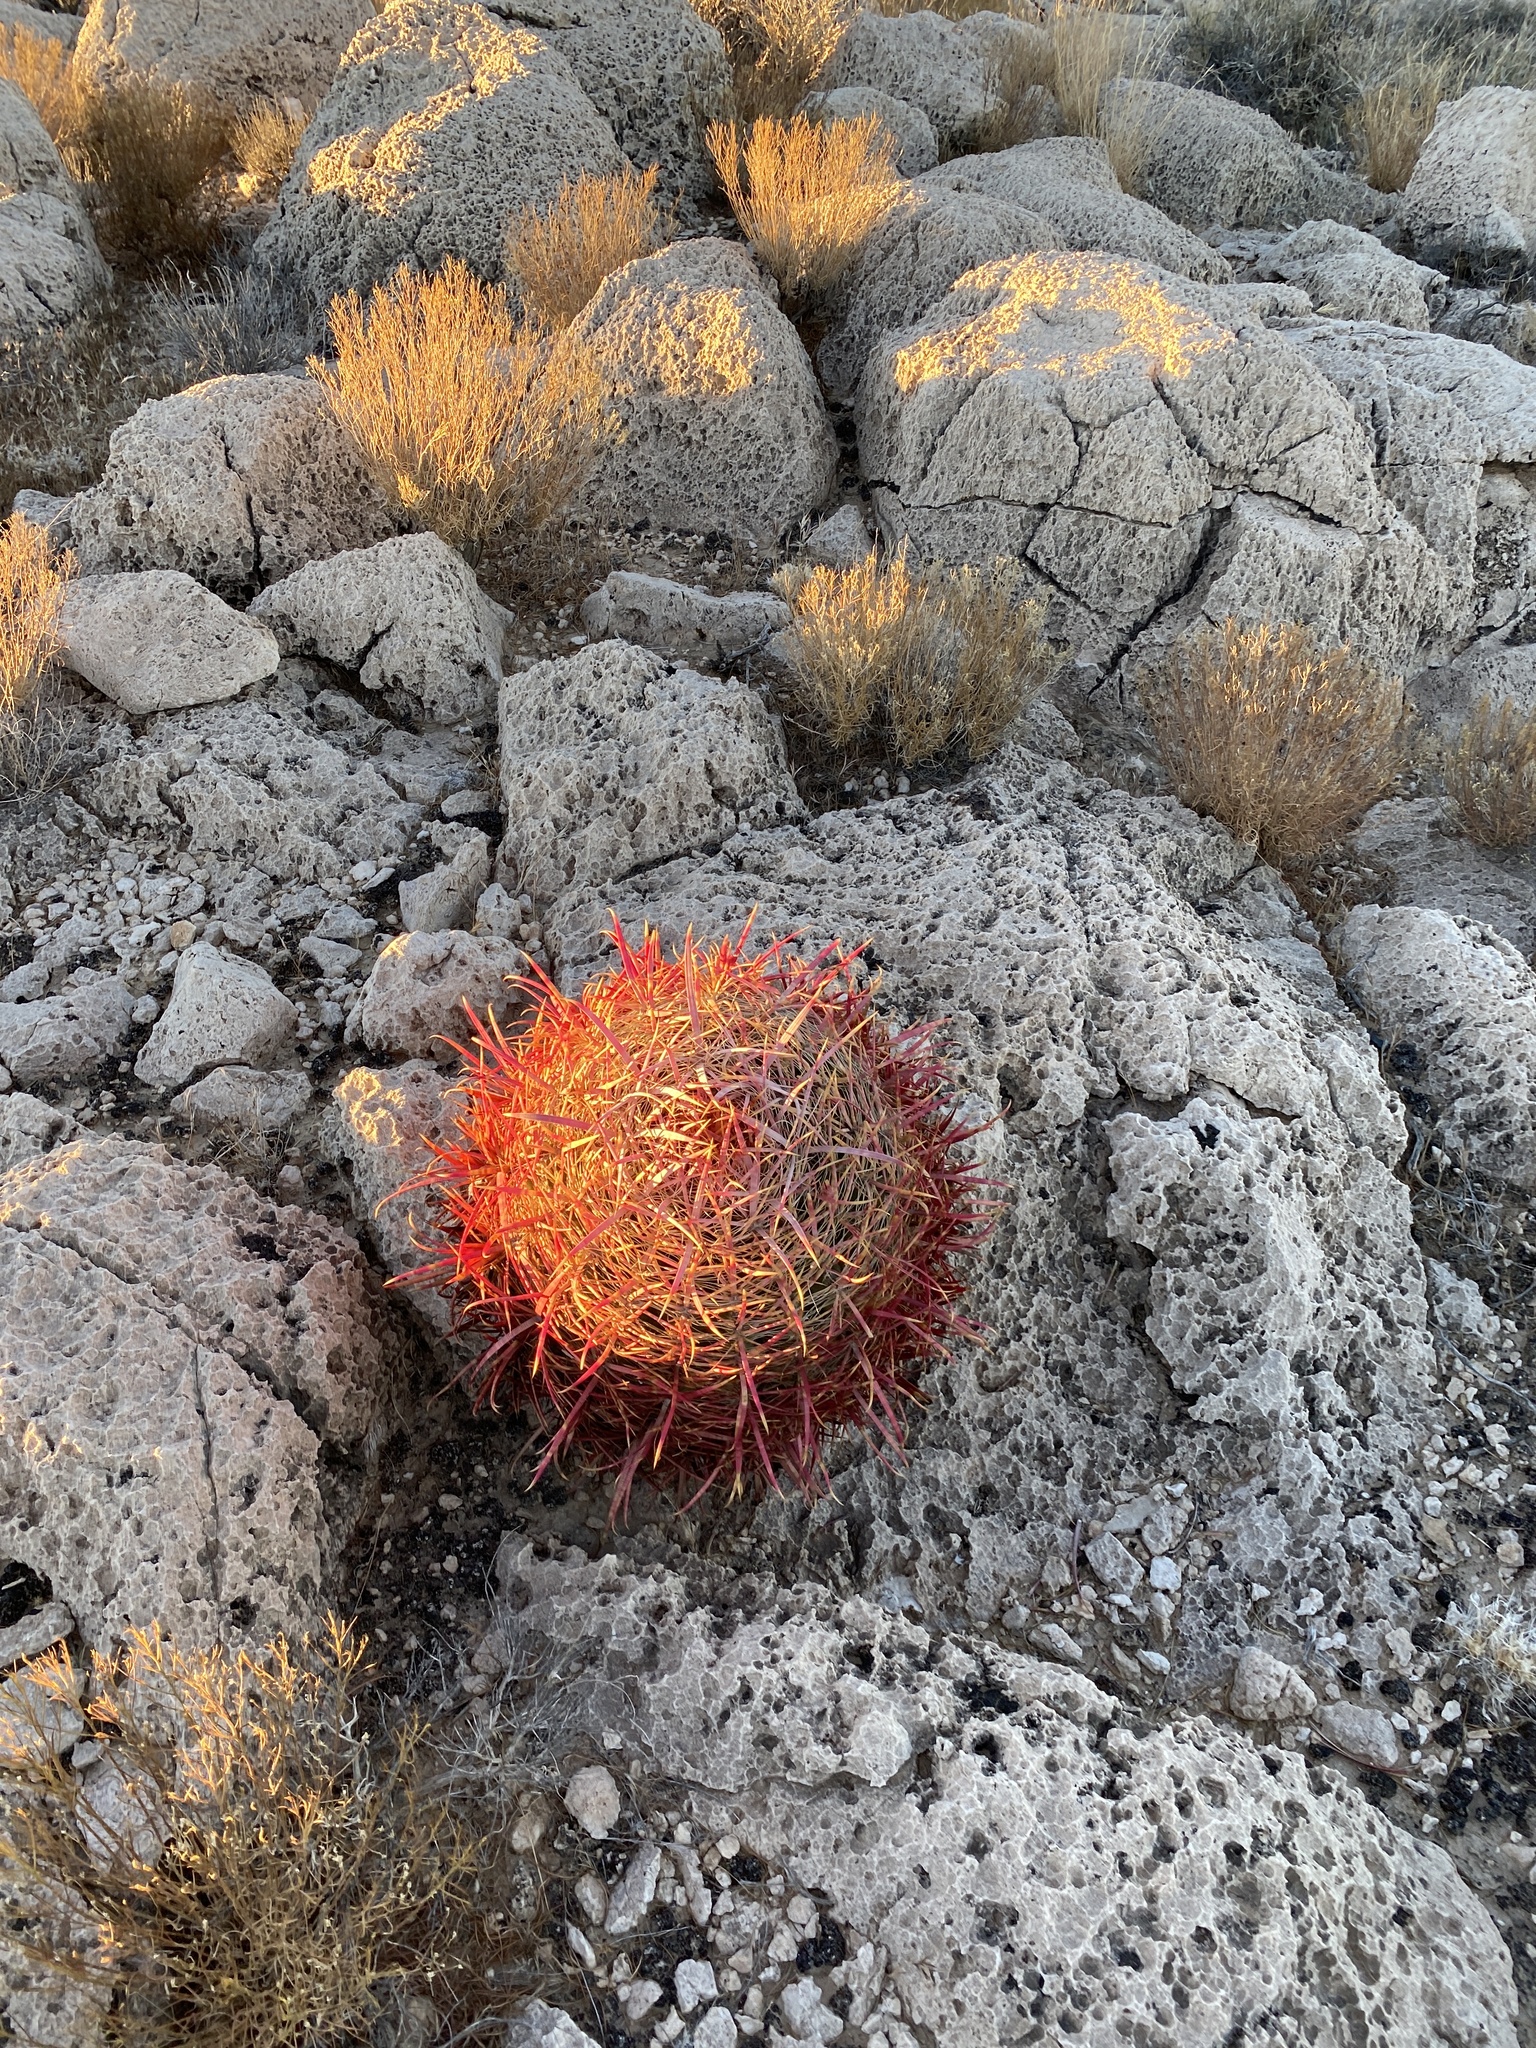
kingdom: Plantae
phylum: Tracheophyta
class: Magnoliopsida
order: Caryophyllales
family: Cactaceae
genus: Ferocactus
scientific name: Ferocactus cylindraceus
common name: California barrel cactus
